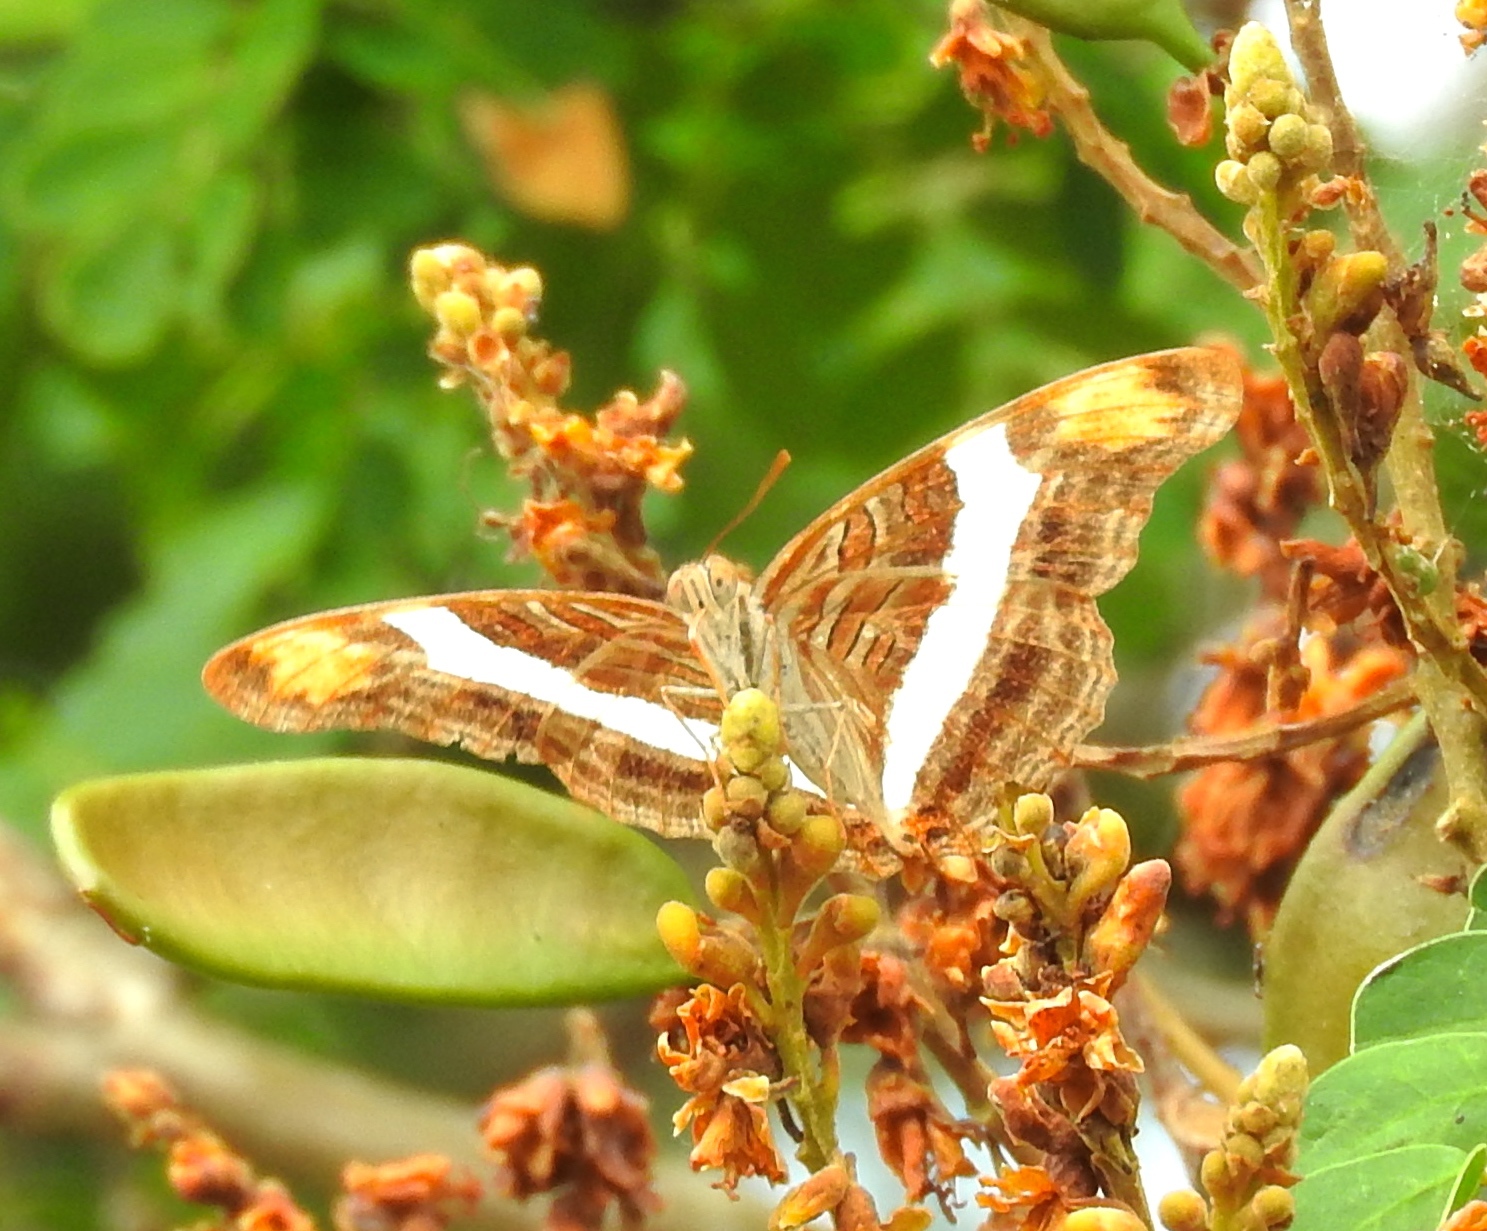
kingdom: Animalia
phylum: Arthropoda
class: Insecta
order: Lepidoptera
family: Nymphalidae
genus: Limenitis
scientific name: Limenitis fessonia
